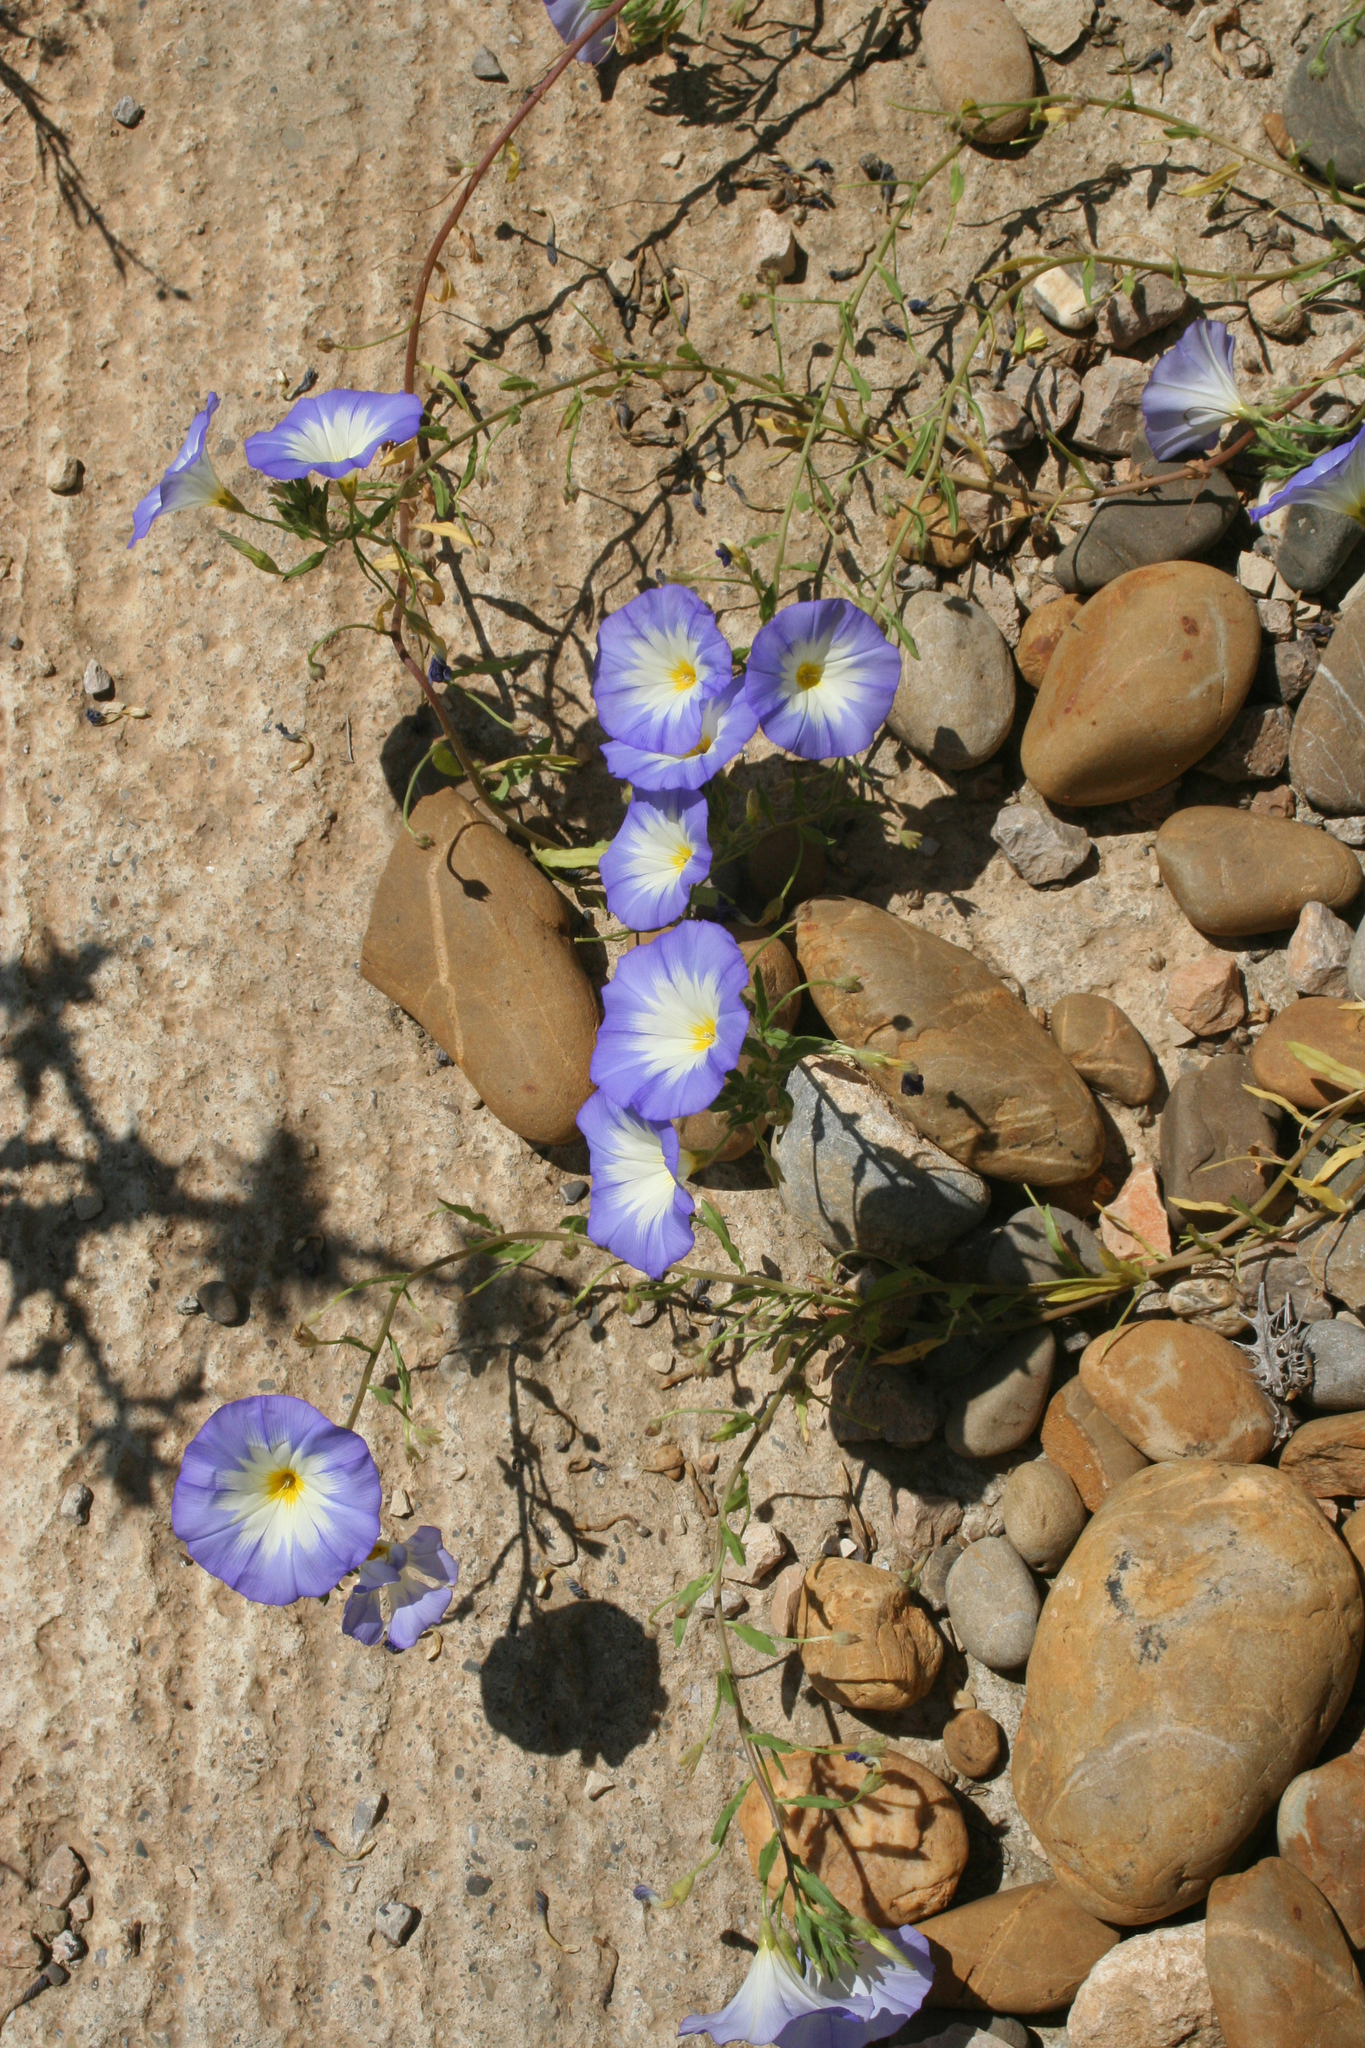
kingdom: Plantae
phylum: Tracheophyta
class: Magnoliopsida
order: Solanales
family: Convolvulaceae
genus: Convolvulus
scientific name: Convolvulus tricolor
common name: Dwarf morning-glory
